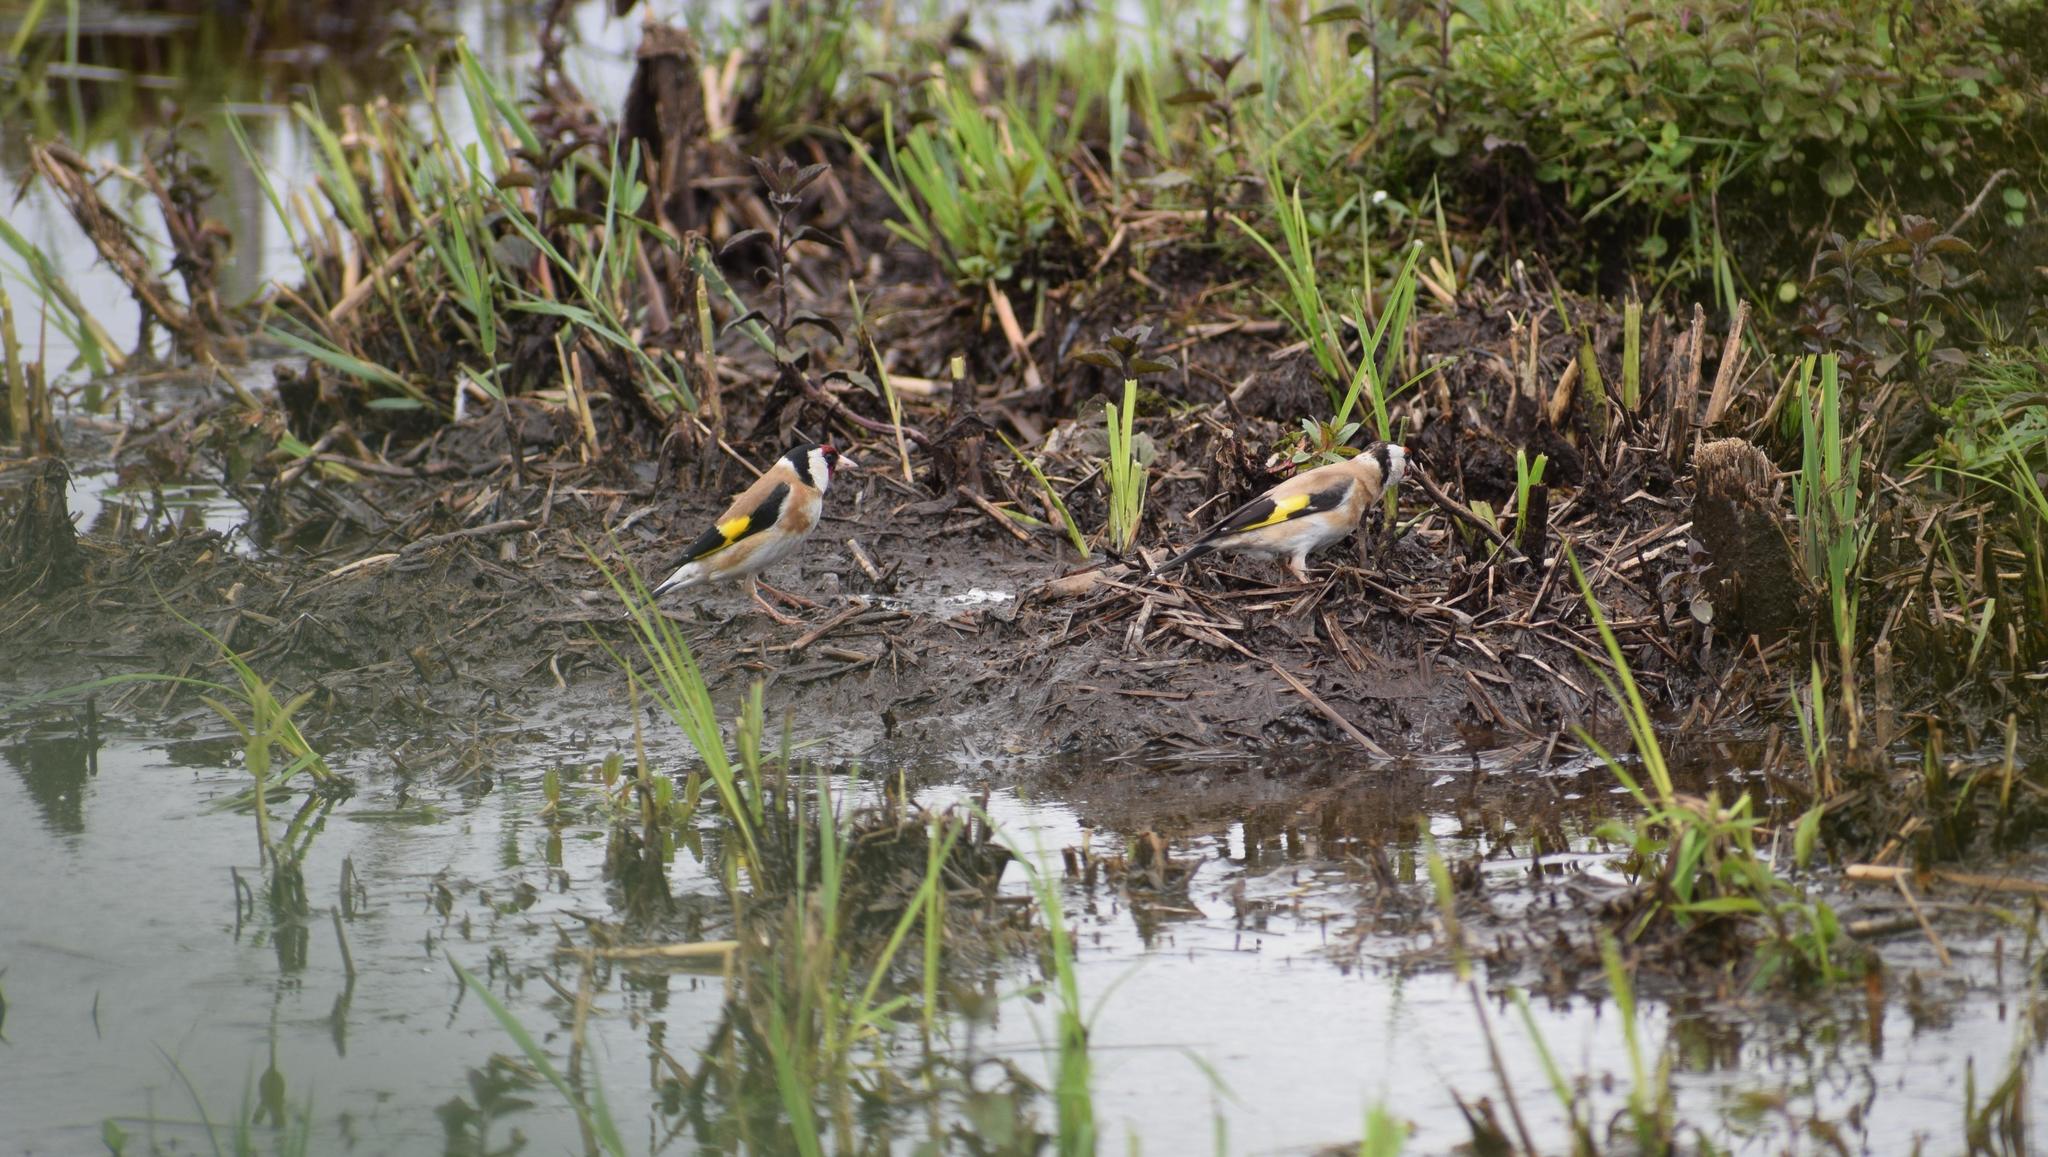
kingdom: Animalia
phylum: Chordata
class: Aves
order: Passeriformes
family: Fringillidae
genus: Carduelis
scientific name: Carduelis carduelis
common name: European goldfinch
